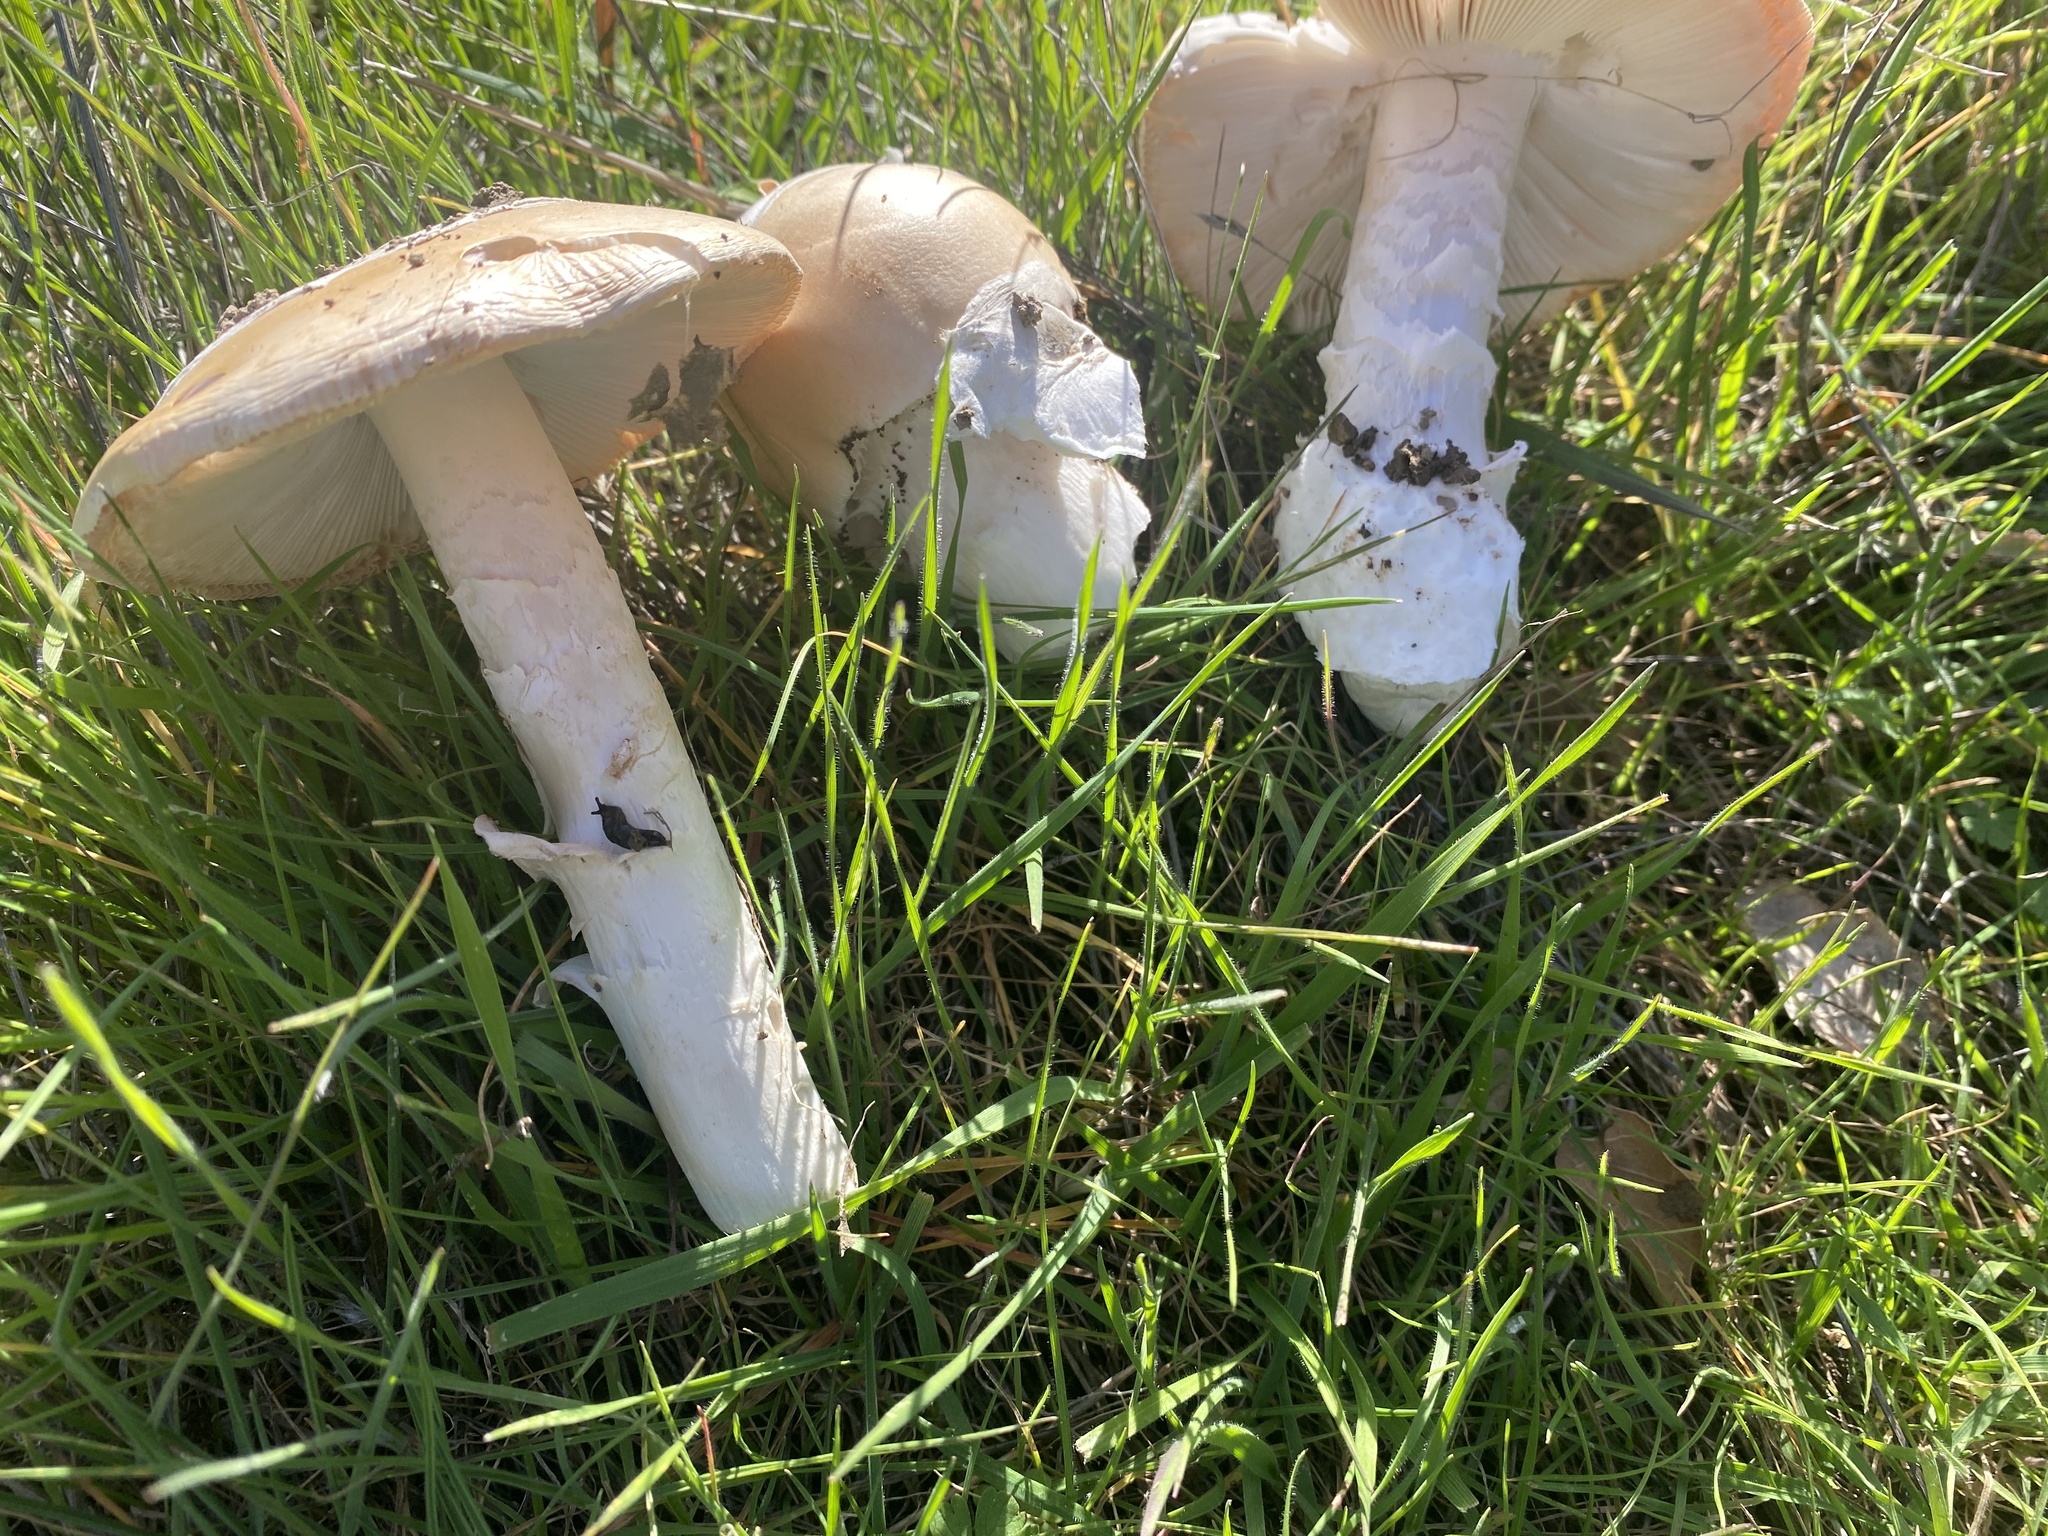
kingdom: Fungi
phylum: Basidiomycota
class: Agaricomycetes
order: Agaricales
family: Amanitaceae
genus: Amanita
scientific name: Amanita velosa
